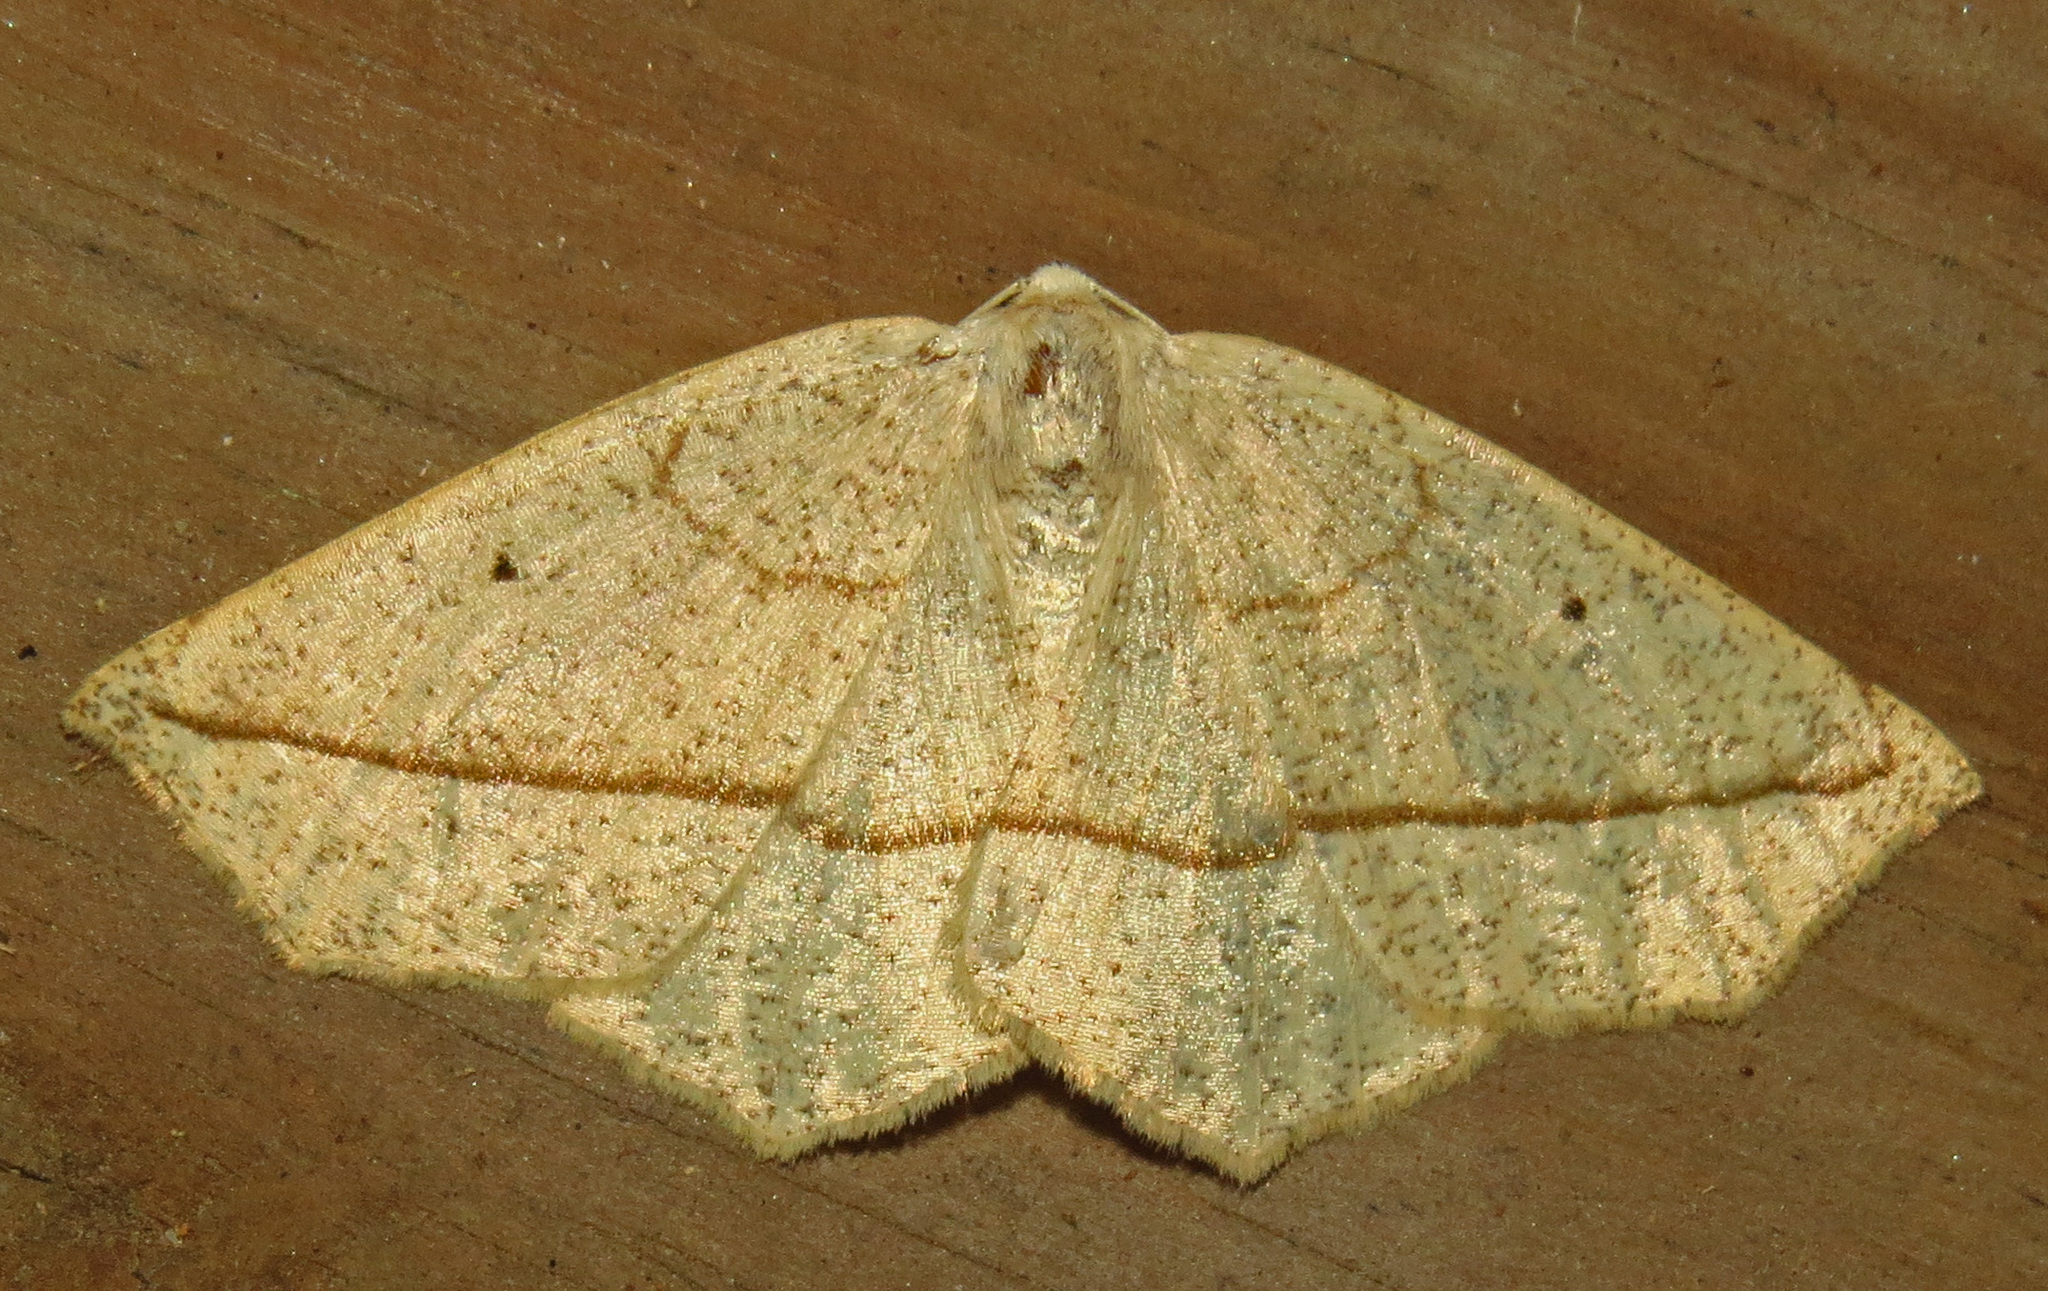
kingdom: Animalia
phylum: Arthropoda
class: Insecta
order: Lepidoptera
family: Geometridae
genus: Eusarca
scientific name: Eusarca confusaria
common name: Confused eusarca
